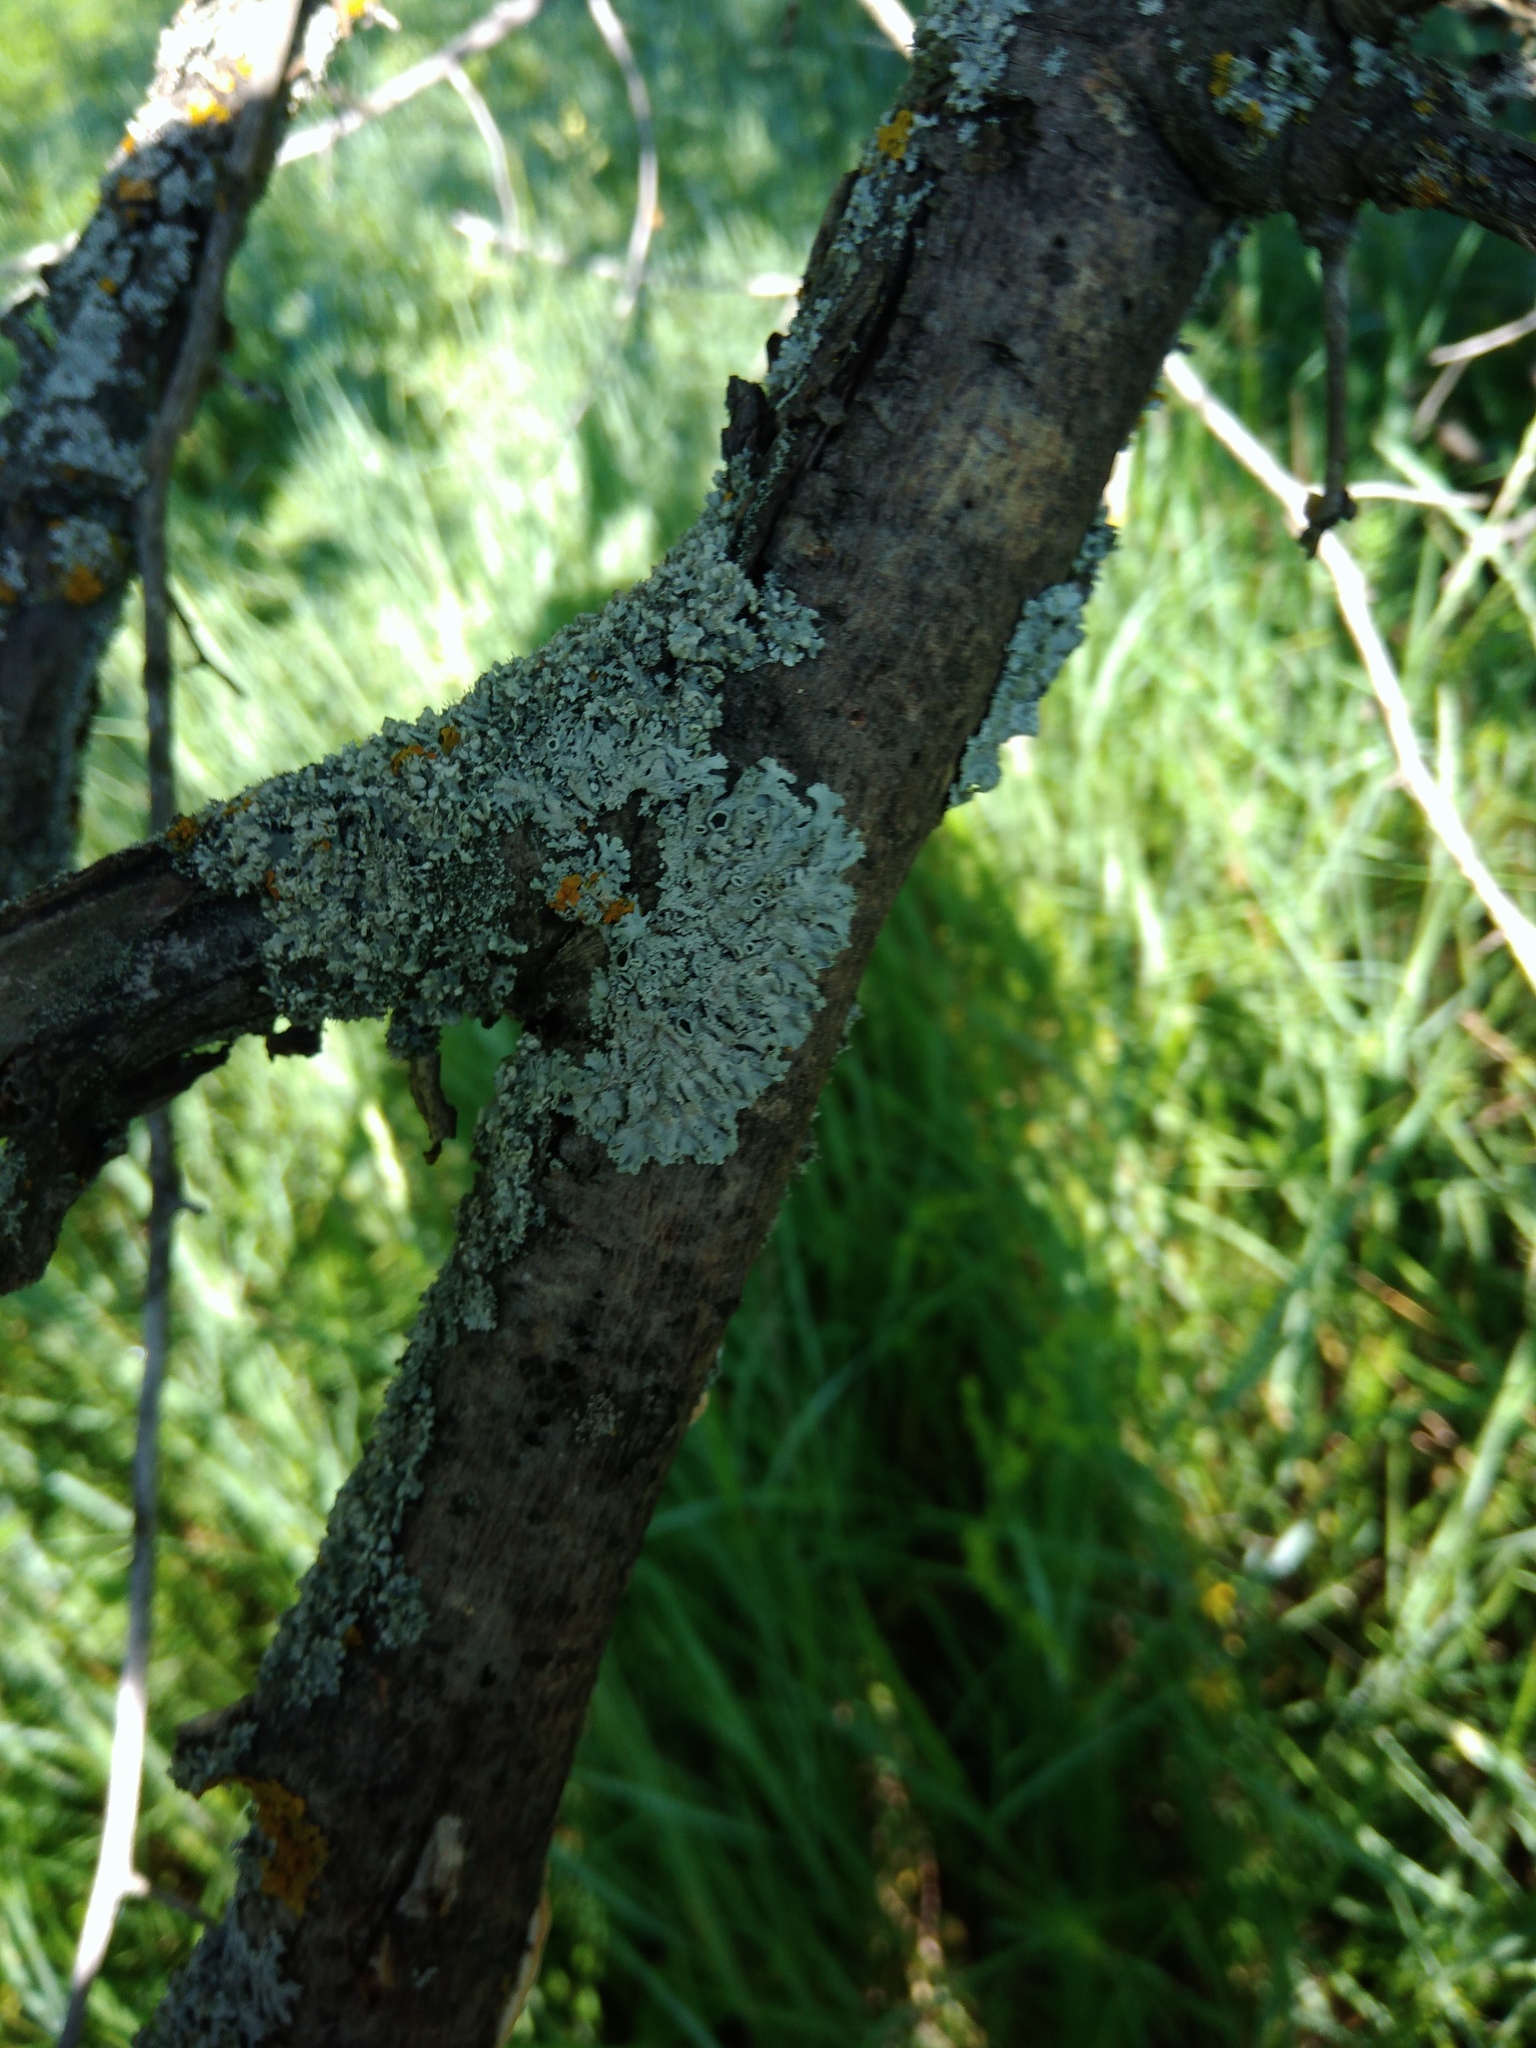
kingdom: Fungi
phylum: Ascomycota
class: Lecanoromycetes
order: Caliciales
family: Physciaceae
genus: Physcia
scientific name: Physcia stellaris
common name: Star rosette lichen
